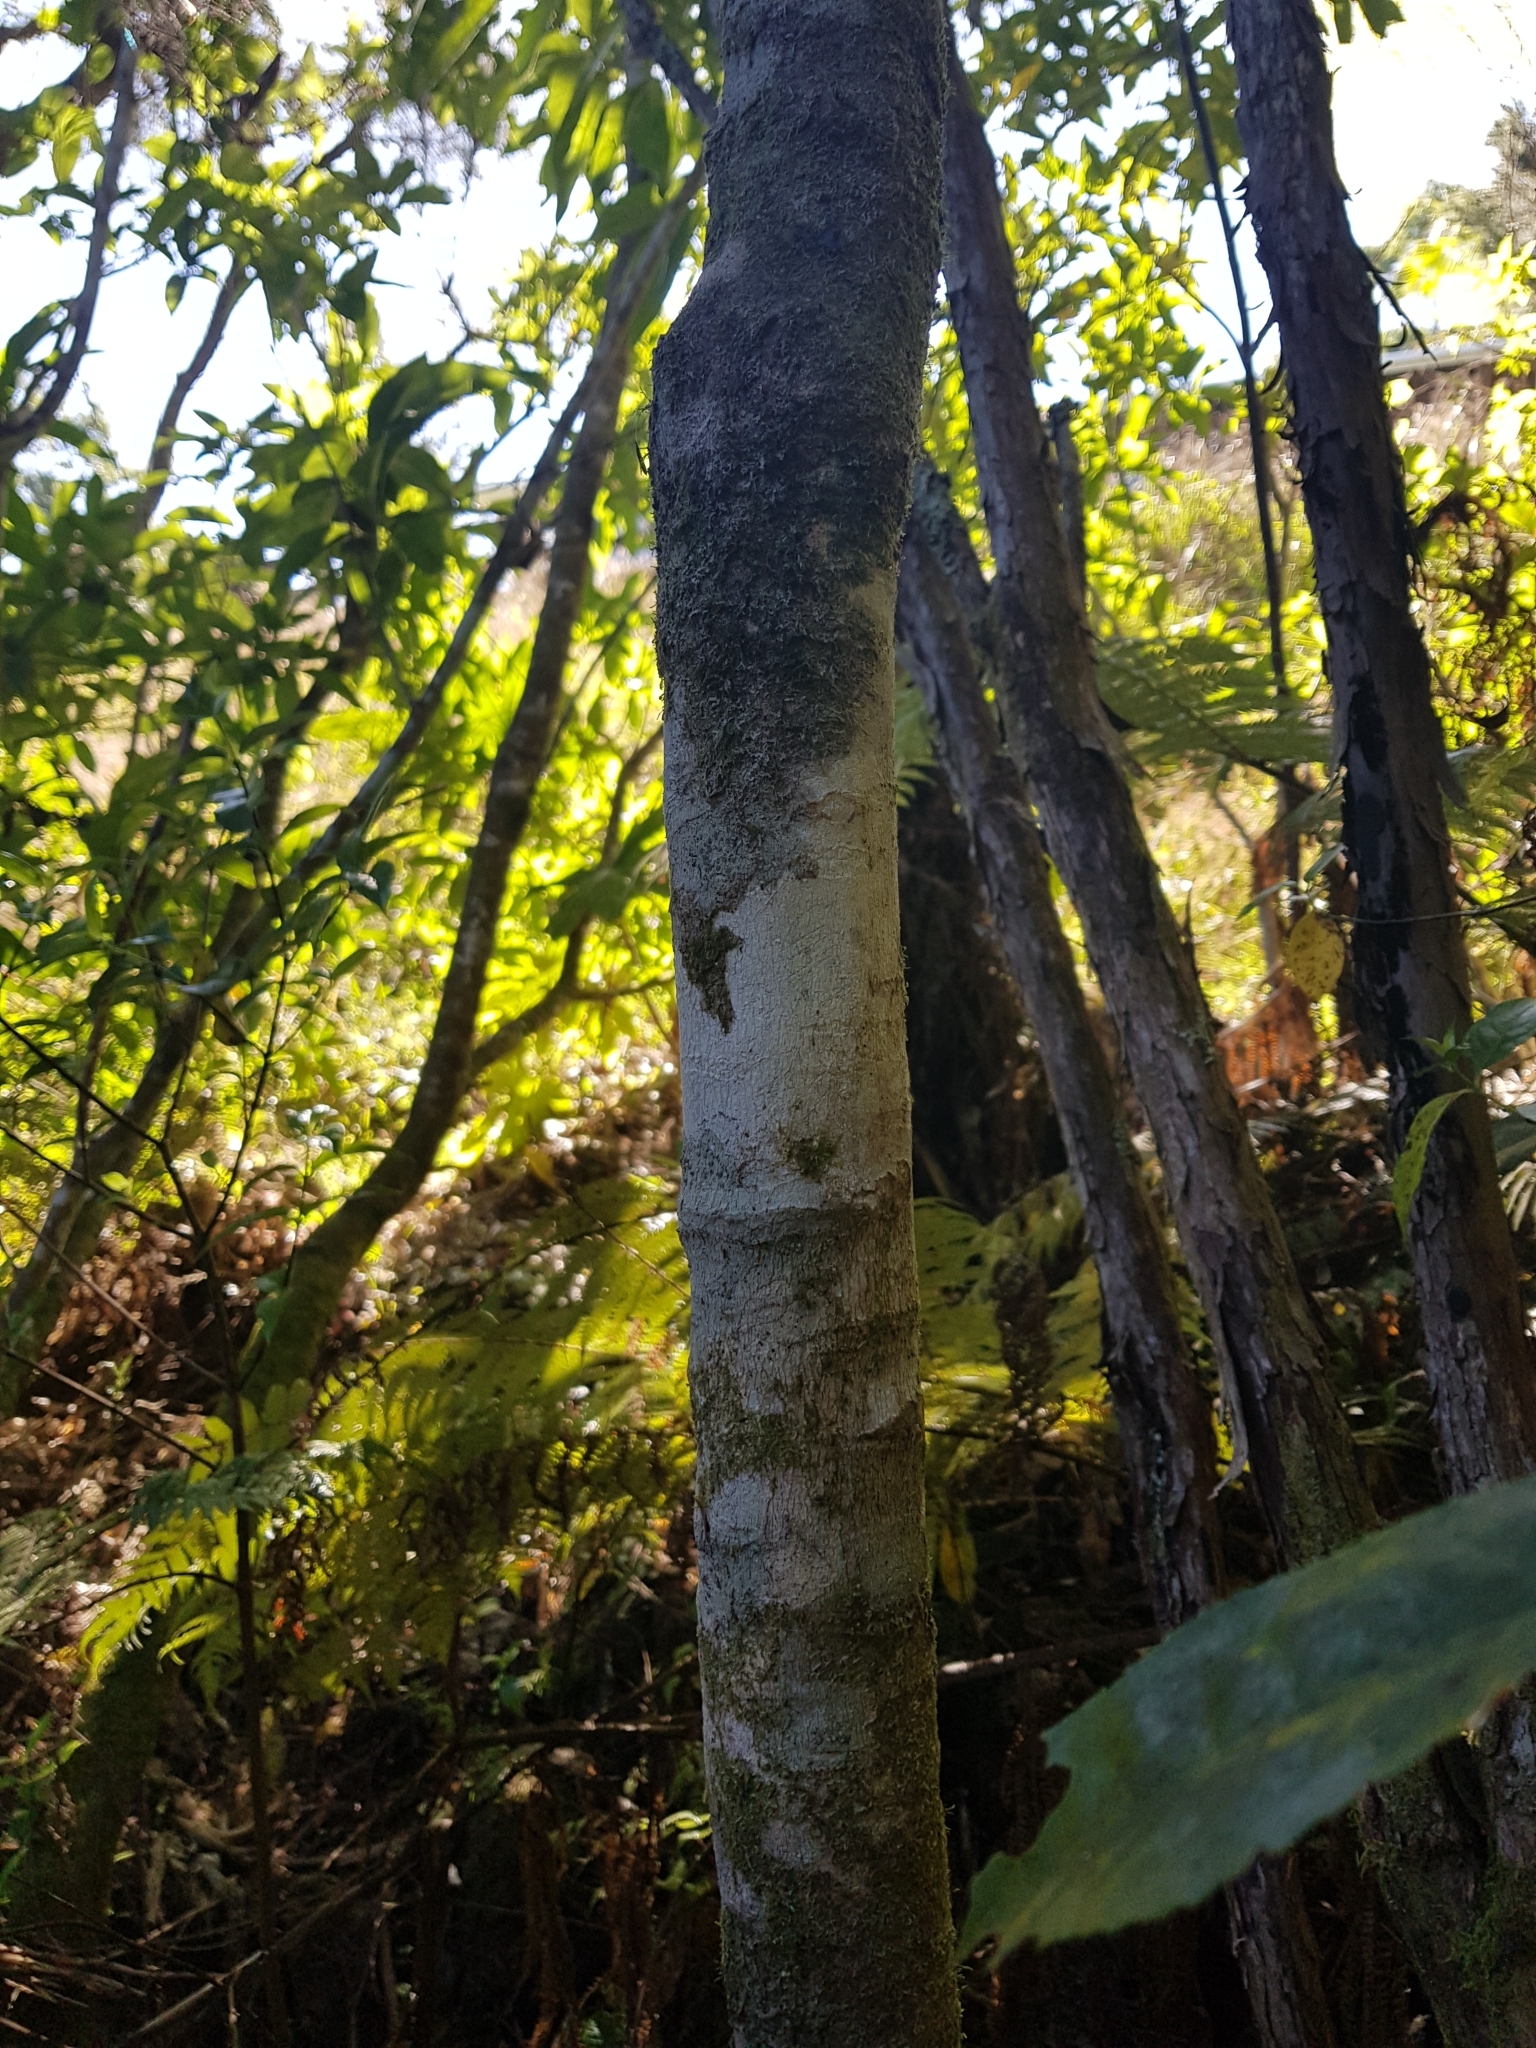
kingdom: Plantae
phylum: Tracheophyta
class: Magnoliopsida
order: Malpighiales
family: Violaceae
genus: Melicytus
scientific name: Melicytus ramiflorus
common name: Mahoe
